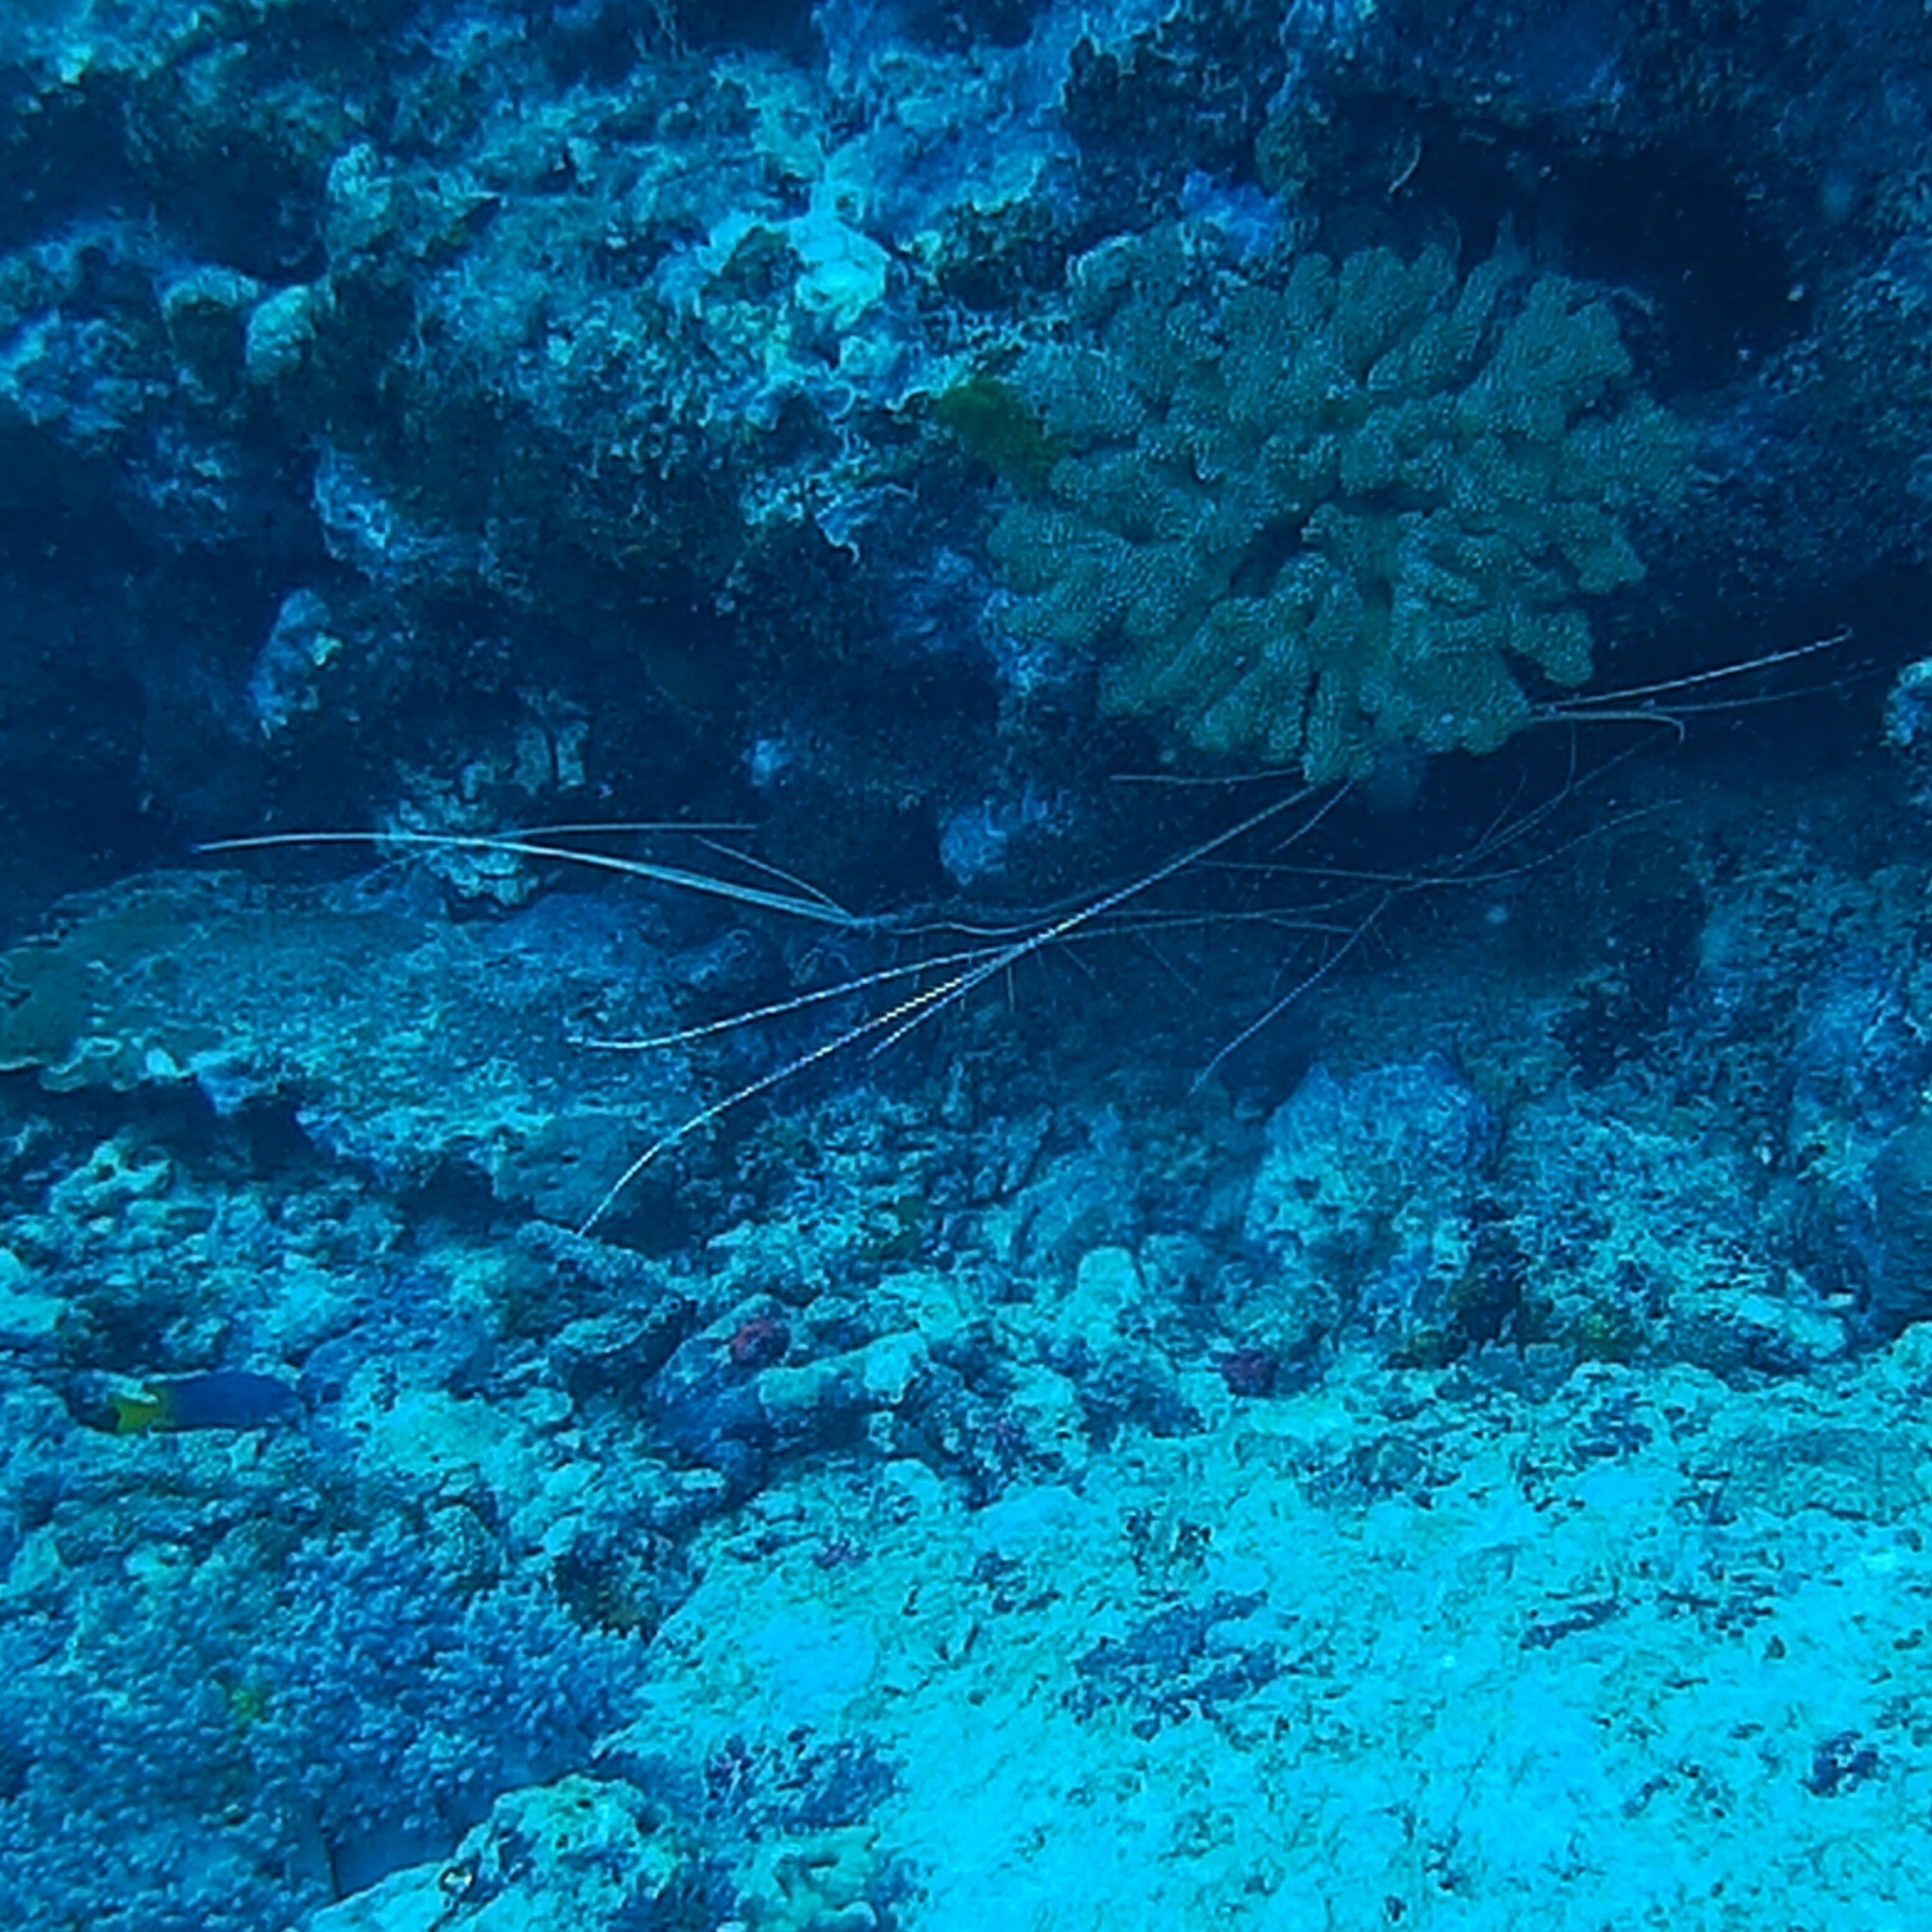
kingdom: Animalia
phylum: Arthropoda
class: Malacostraca
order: Decapoda
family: Palinuridae
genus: Panulirus
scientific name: Panulirus versicolor
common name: Painted spiny lobster
